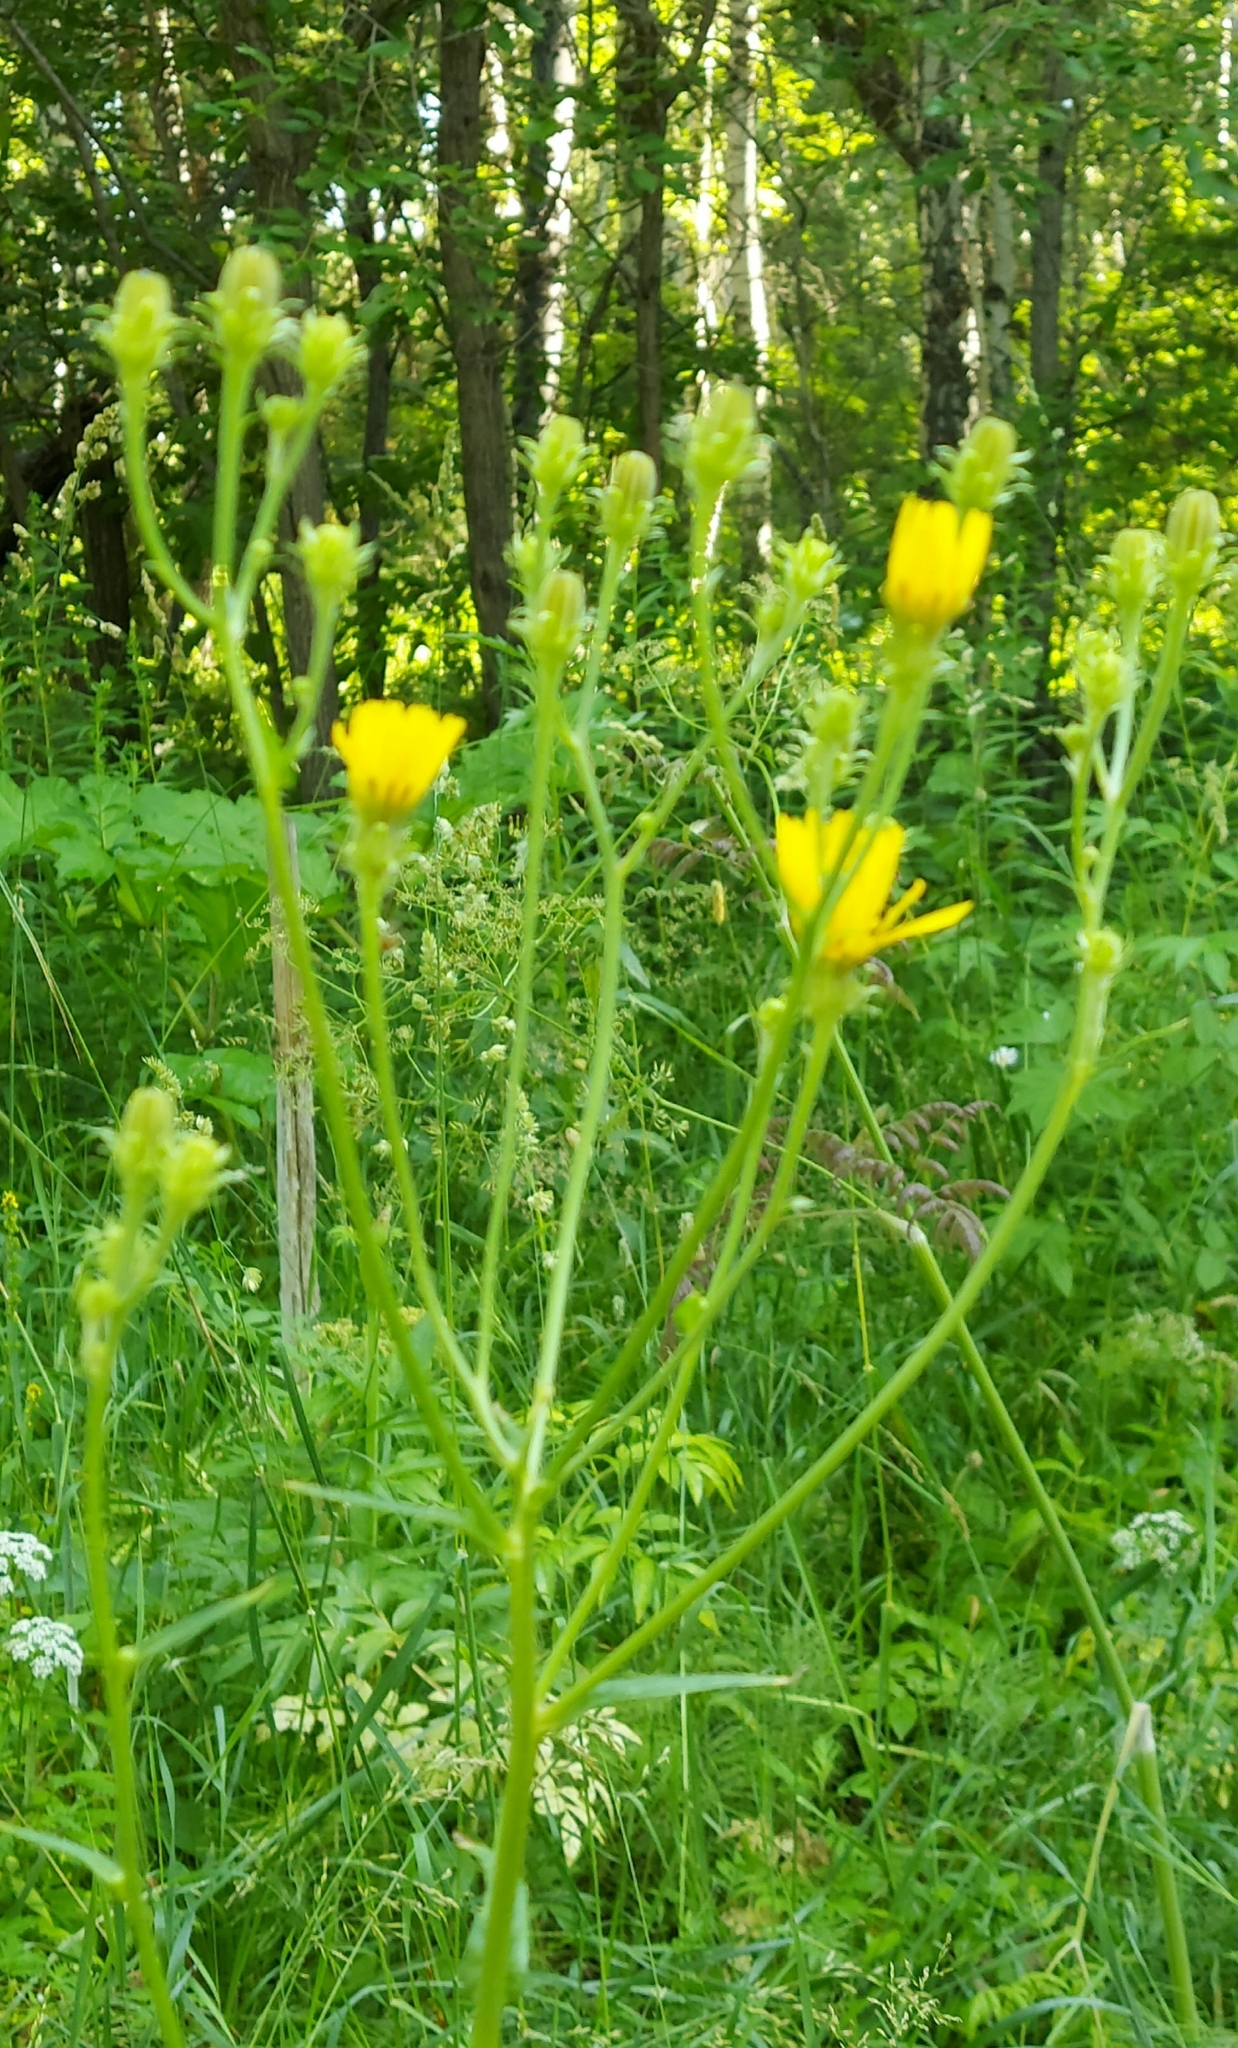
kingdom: Plantae
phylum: Tracheophyta
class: Magnoliopsida
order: Asterales
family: Asteraceae
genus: Picris
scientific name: Picris hieracioides
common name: Hawkweed oxtongue
